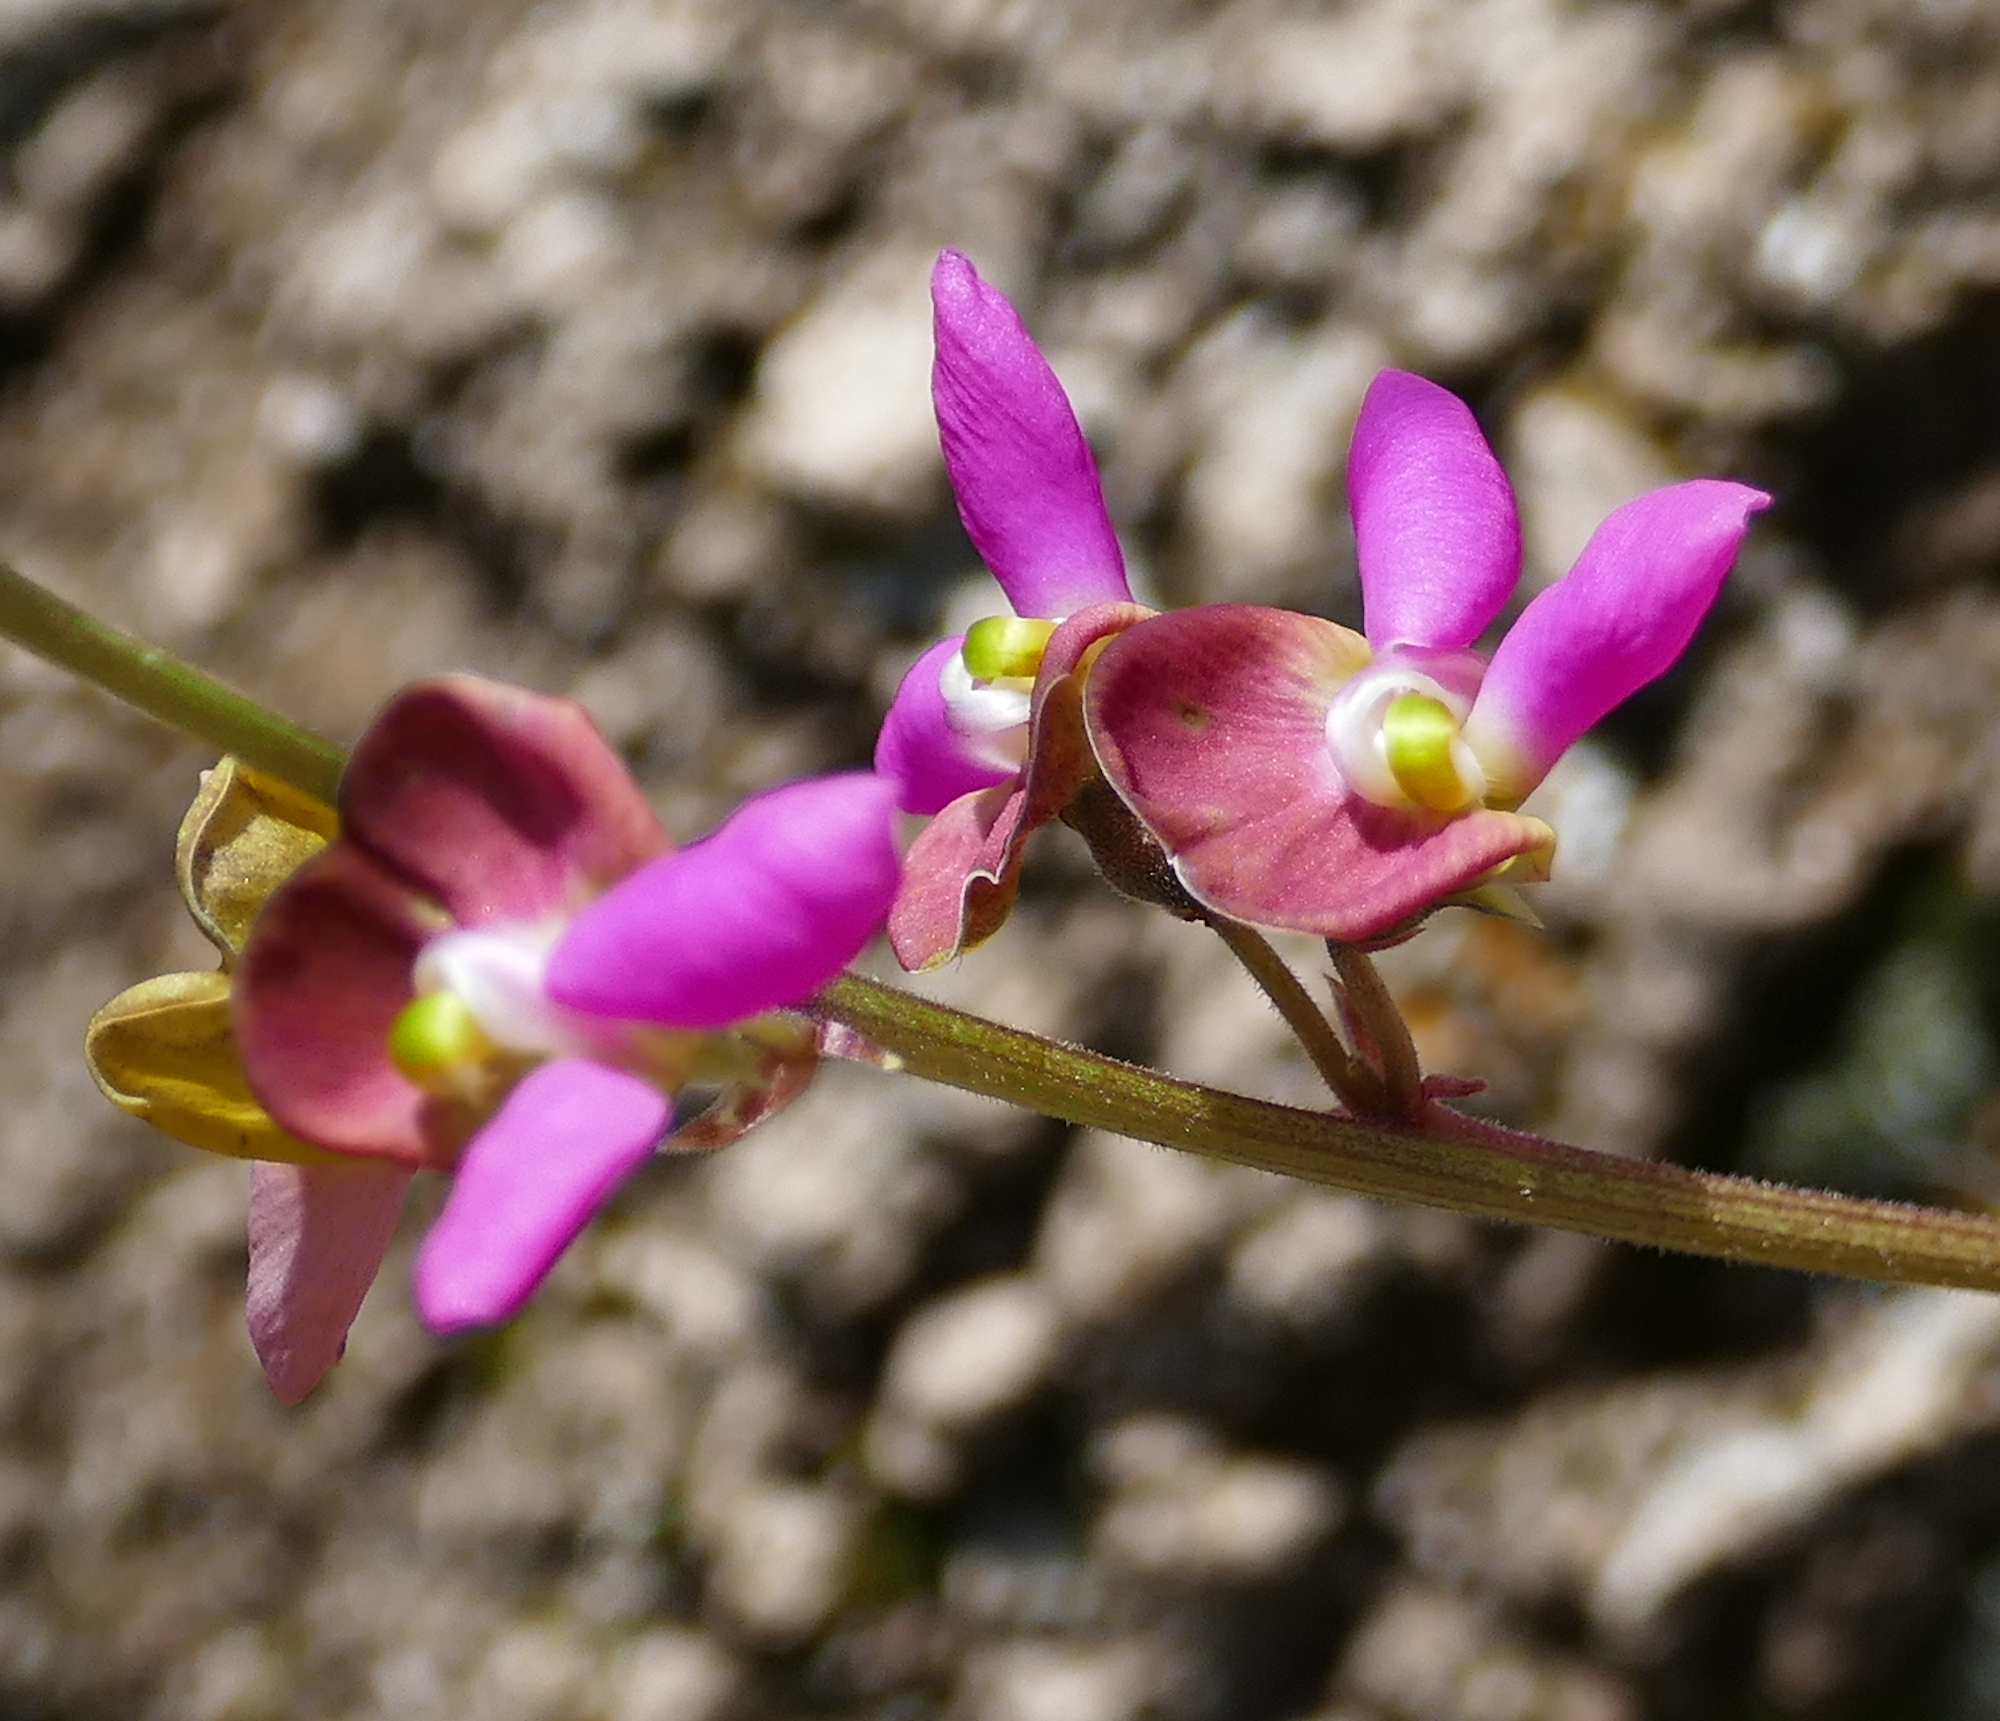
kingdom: Plantae
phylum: Tracheophyta
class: Magnoliopsida
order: Fabales
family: Fabaceae
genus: Phaseolus
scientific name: Phaseolus maculatus
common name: Metcalfe bean
